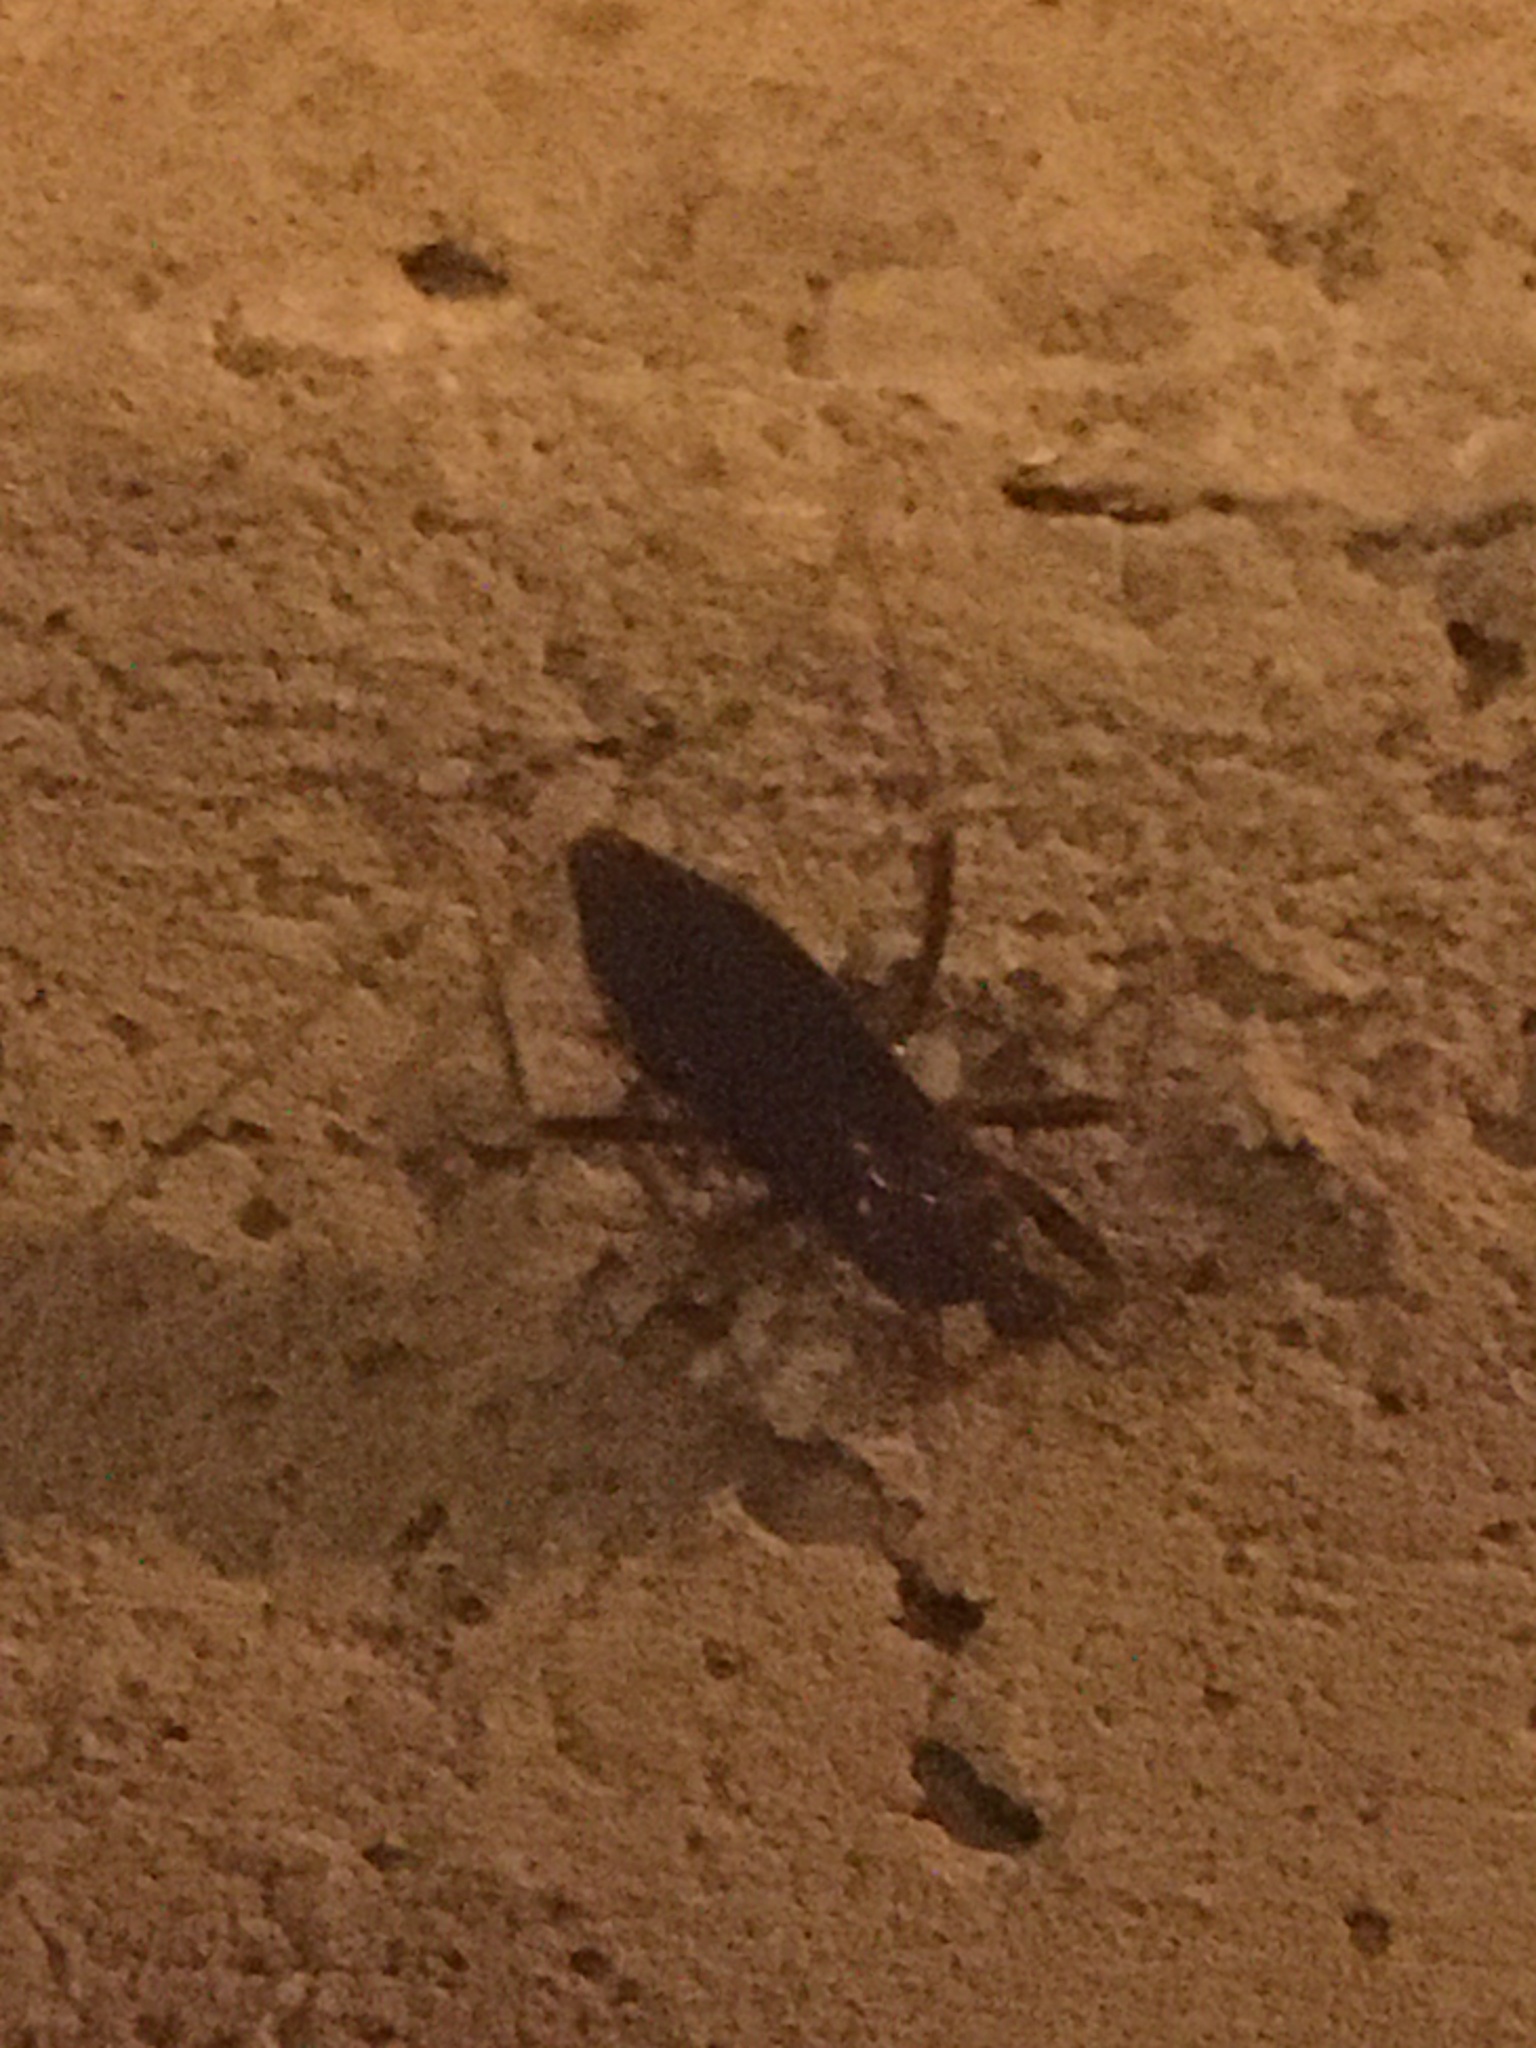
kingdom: Animalia
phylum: Arthropoda
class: Insecta
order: Hemiptera
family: Reduviidae
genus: Reduvius
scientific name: Reduvius personatus
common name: Masked hunter
